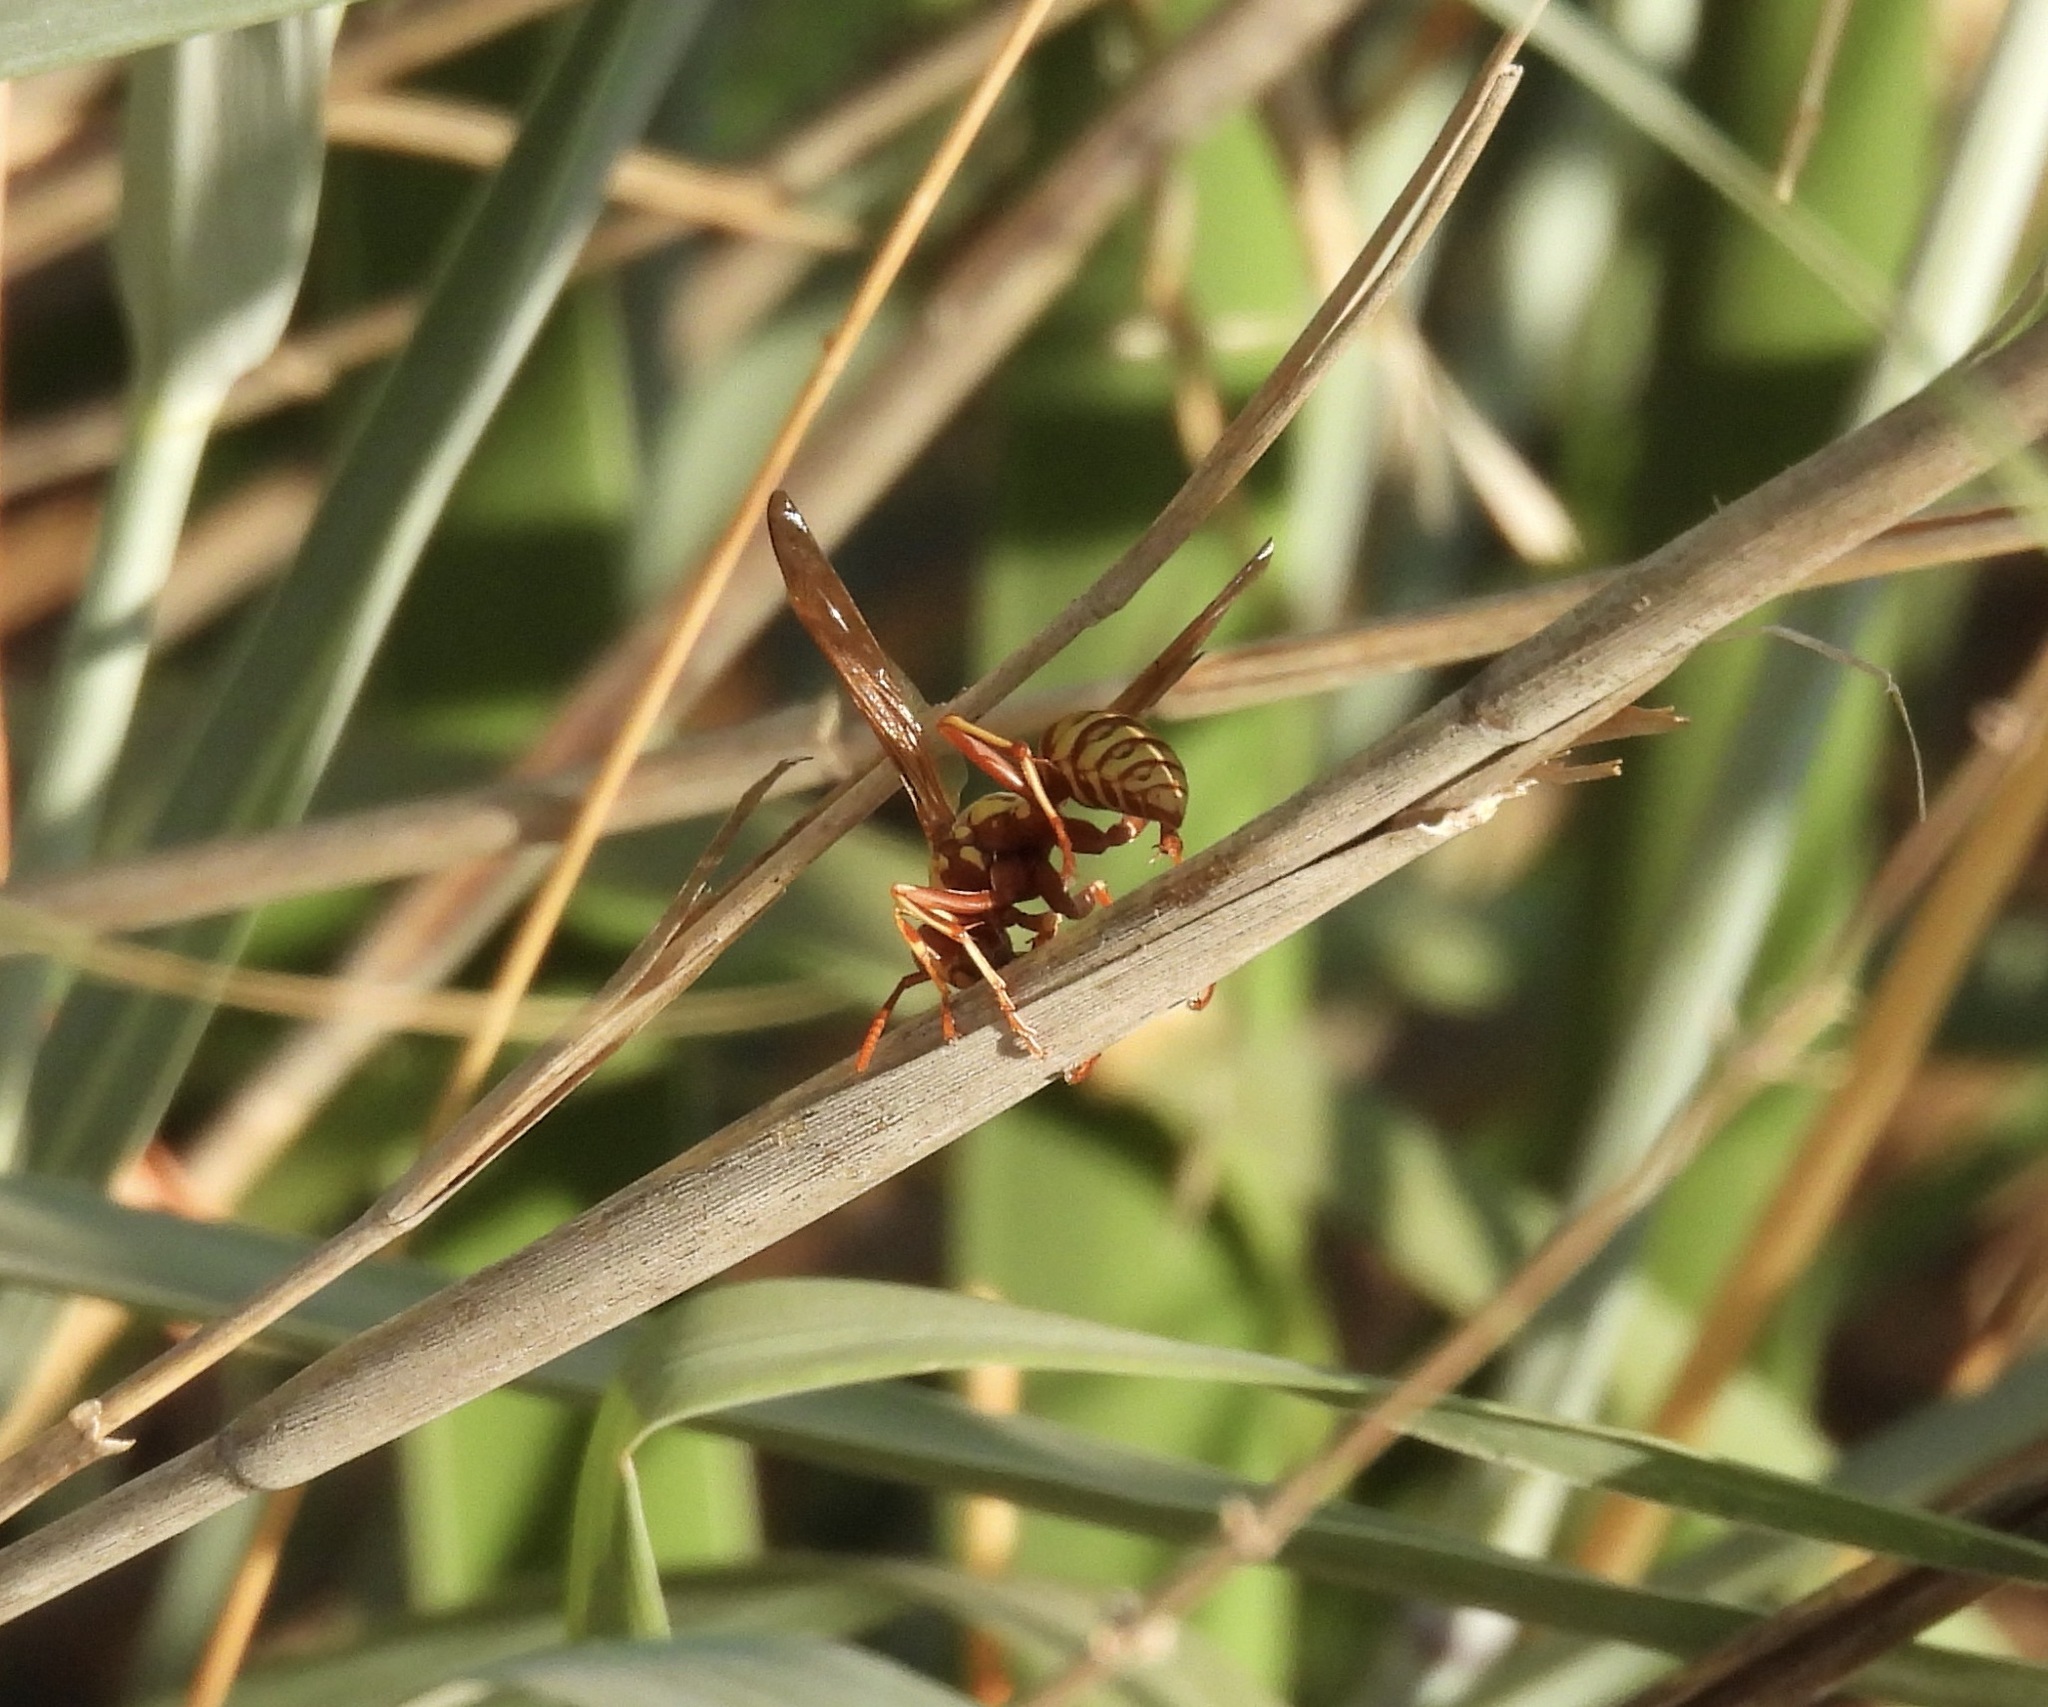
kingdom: Animalia
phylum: Arthropoda
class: Insecta
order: Hymenoptera
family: Eumenidae
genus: Polistes
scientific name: Polistes apachus
